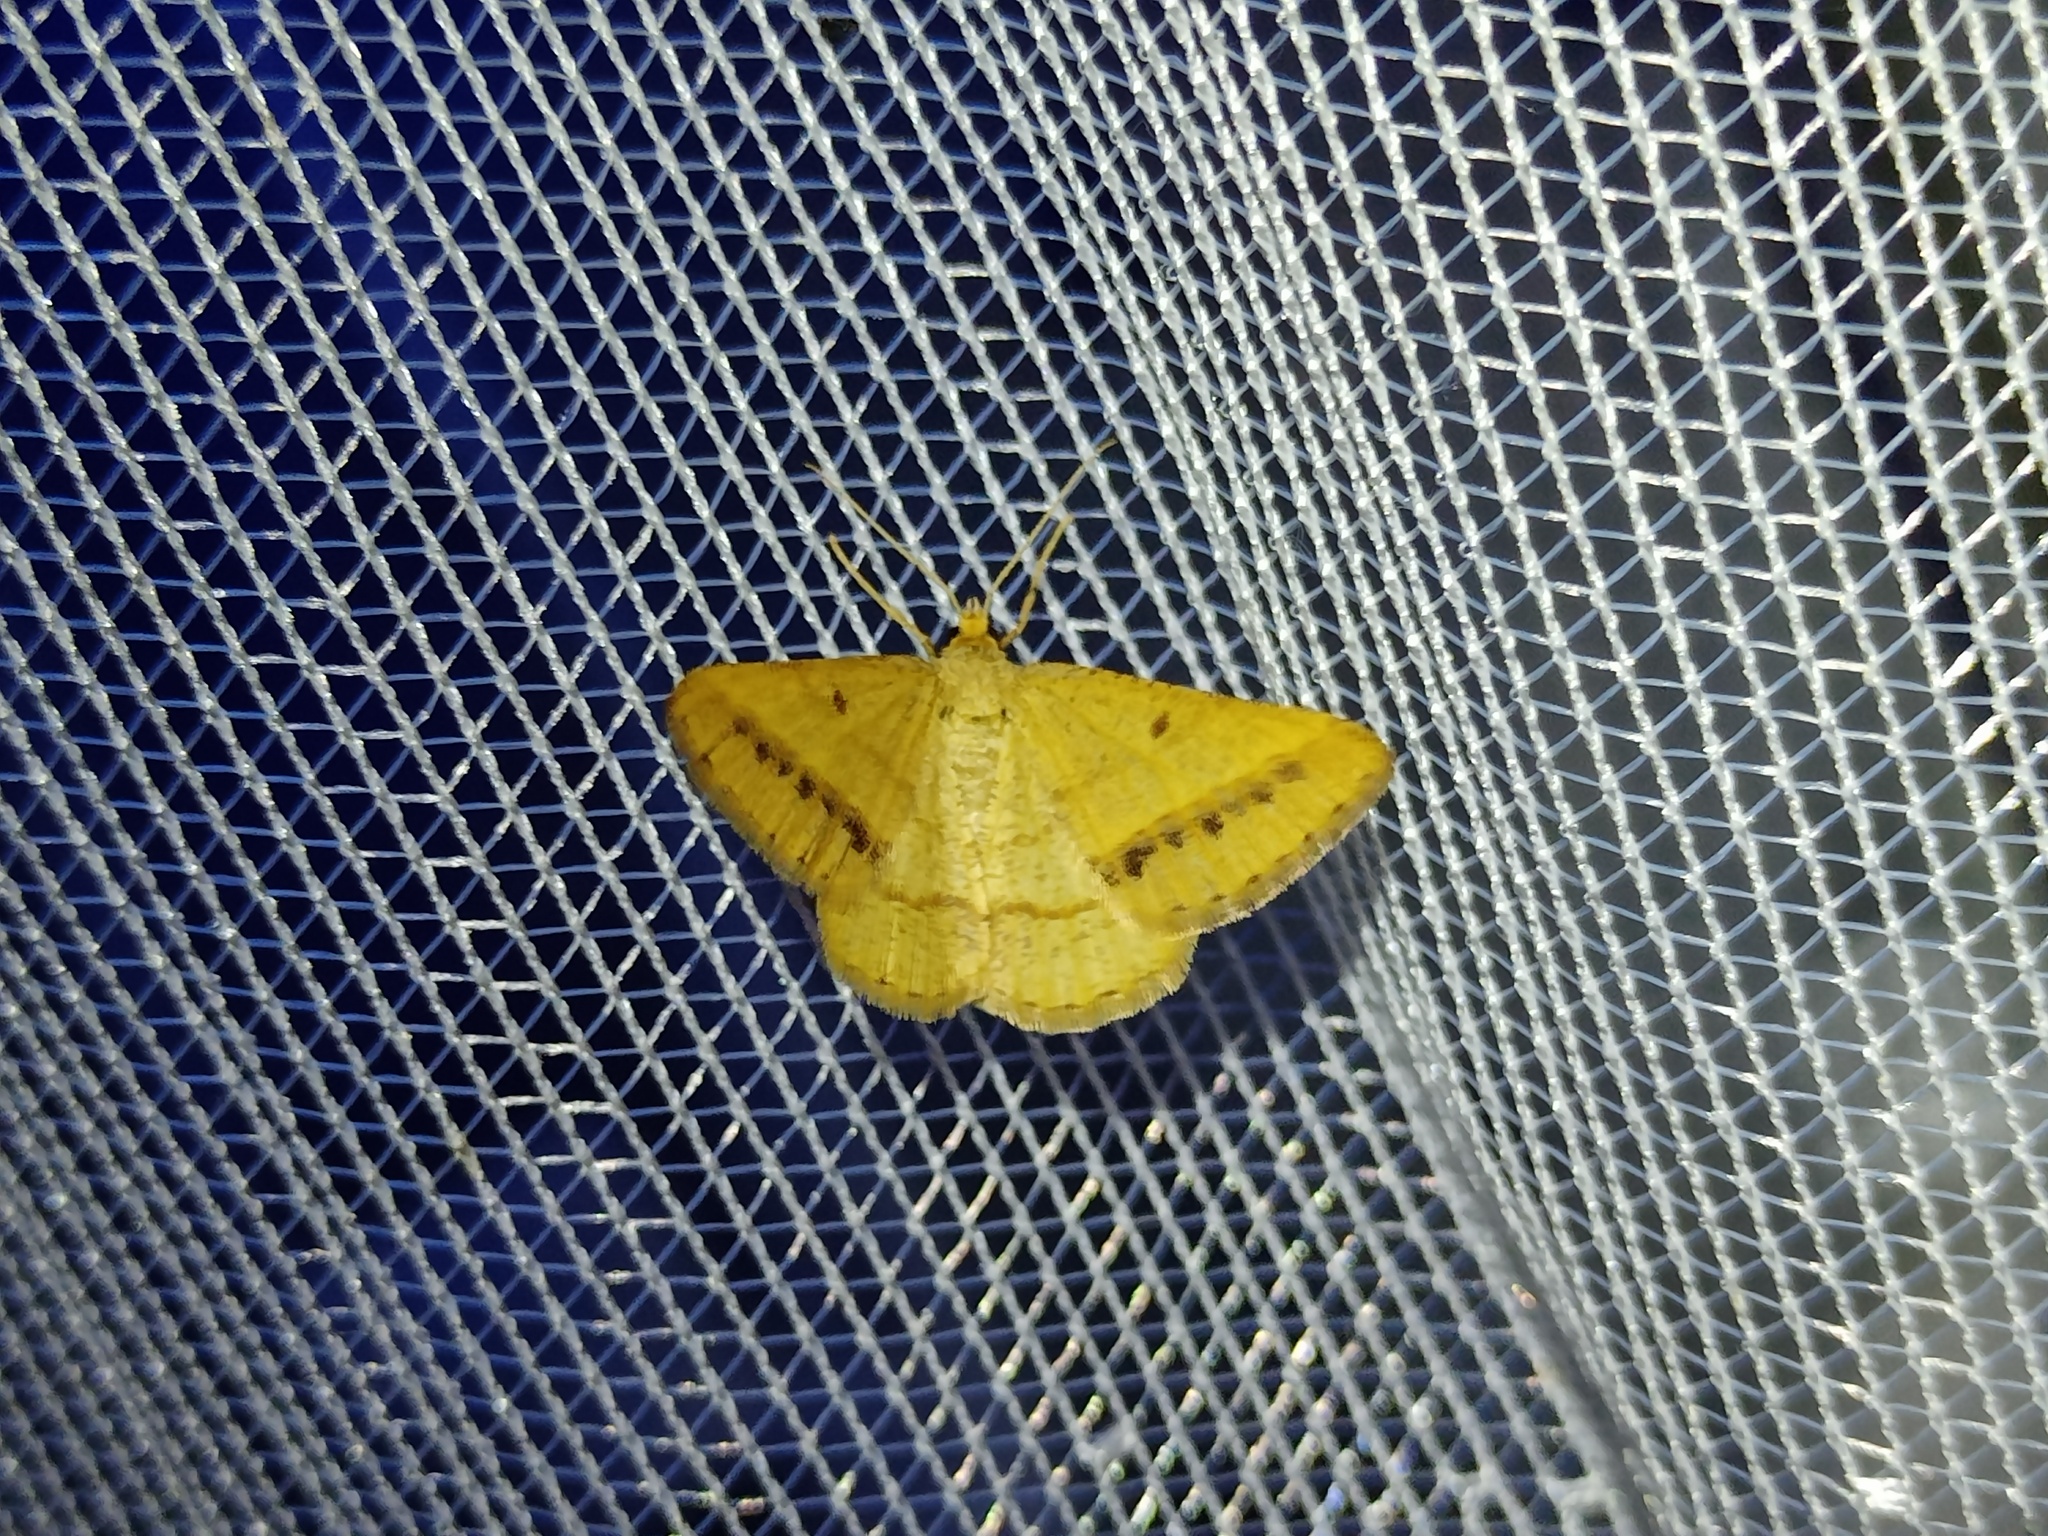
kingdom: Animalia
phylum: Arthropoda
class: Insecta
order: Lepidoptera
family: Geometridae
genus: Tephrina
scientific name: Tephrina arenacearia
